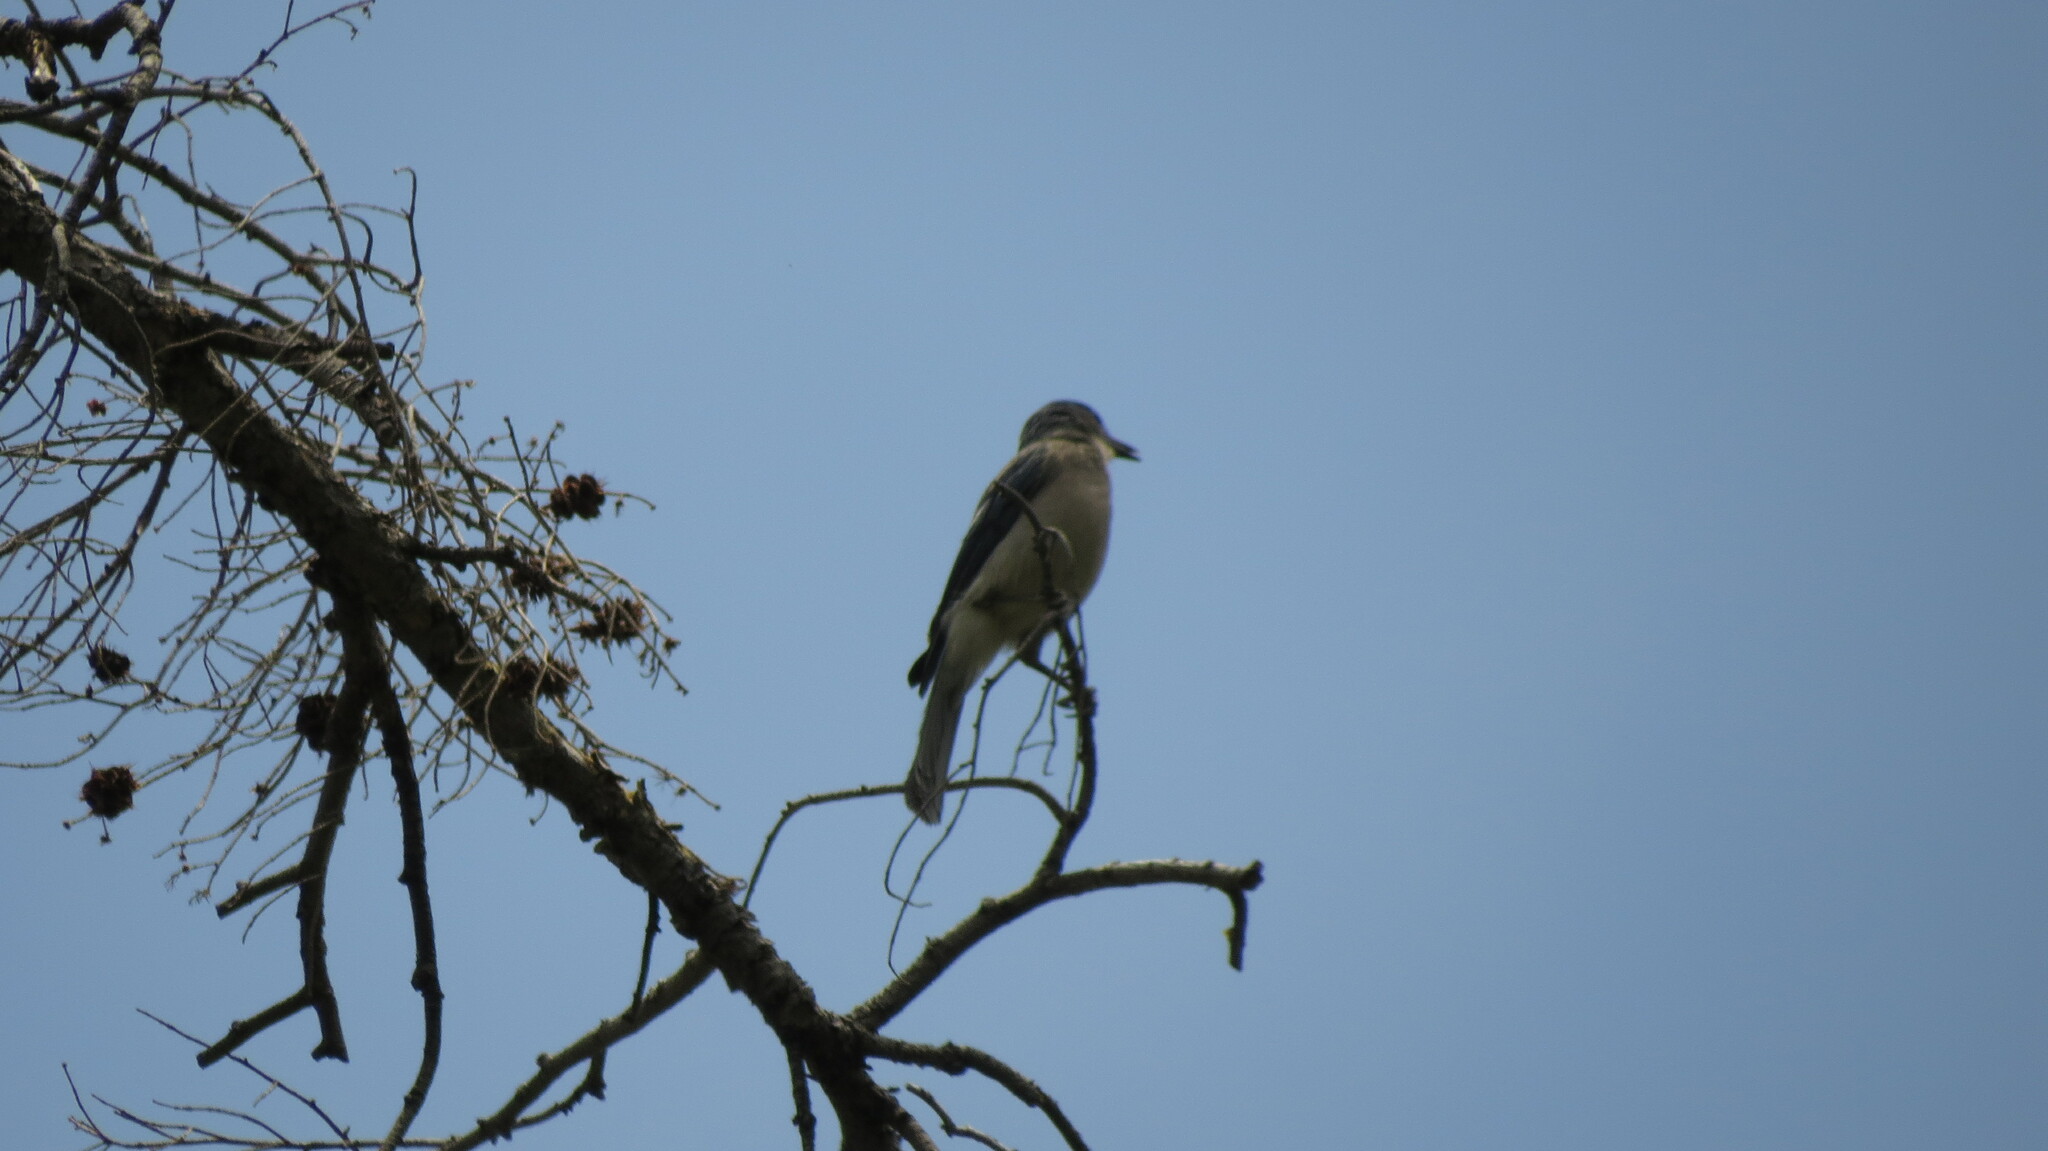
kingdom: Animalia
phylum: Chordata
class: Aves
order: Passeriformes
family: Corvidae
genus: Aphelocoma
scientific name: Aphelocoma wollweberi
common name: Mexican jay
